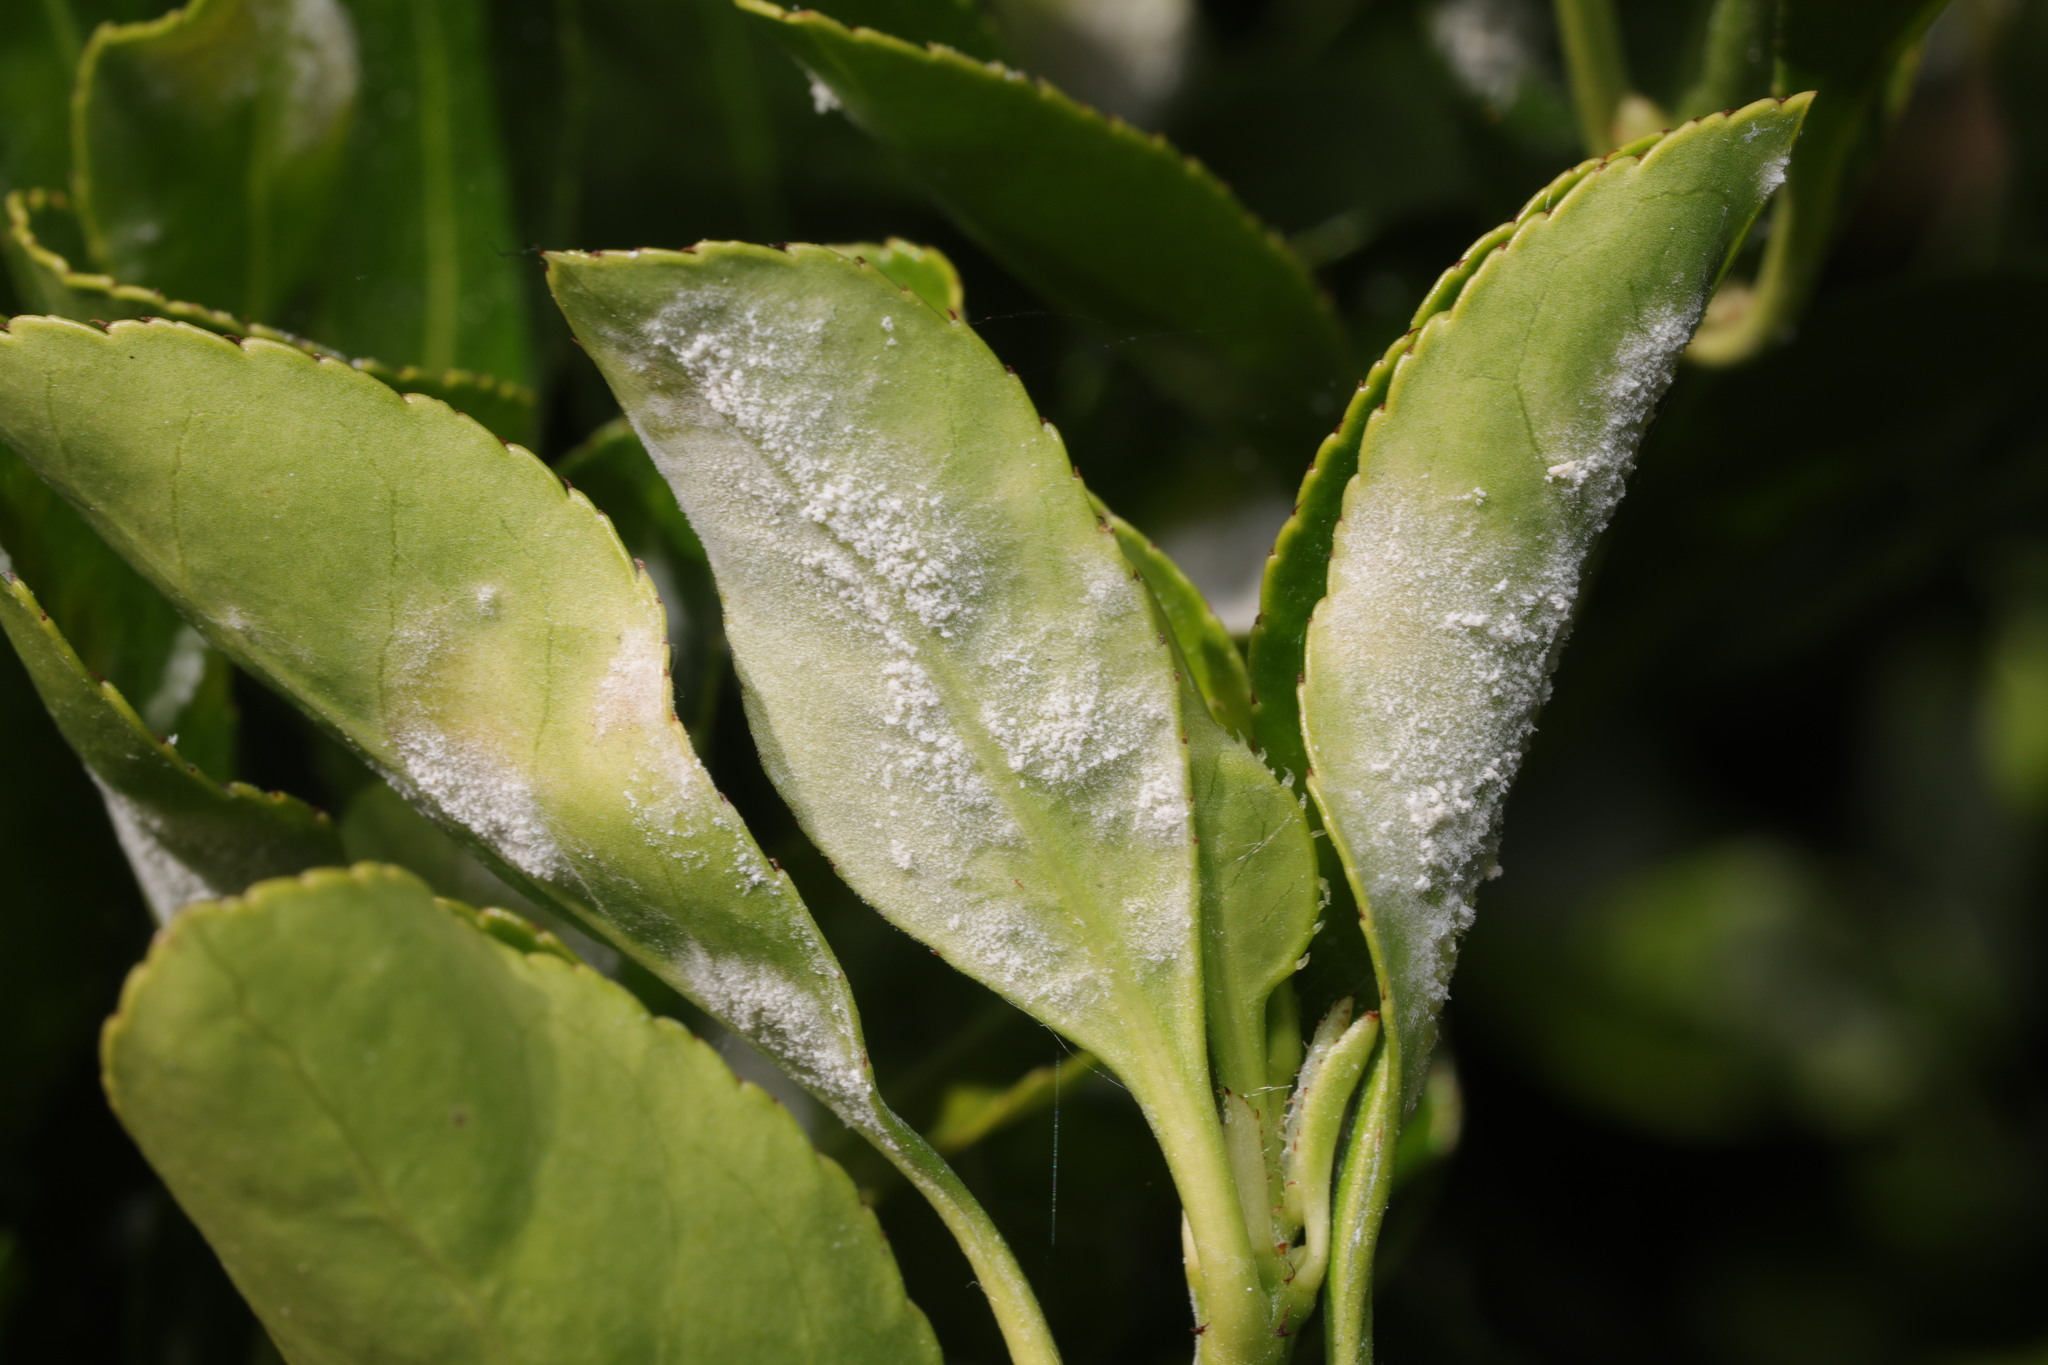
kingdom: Fungi
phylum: Ascomycota
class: Leotiomycetes
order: Helotiales
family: Erysiphaceae
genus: Erysiphe
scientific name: Erysiphe euonymicola
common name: Spindletree mildew
